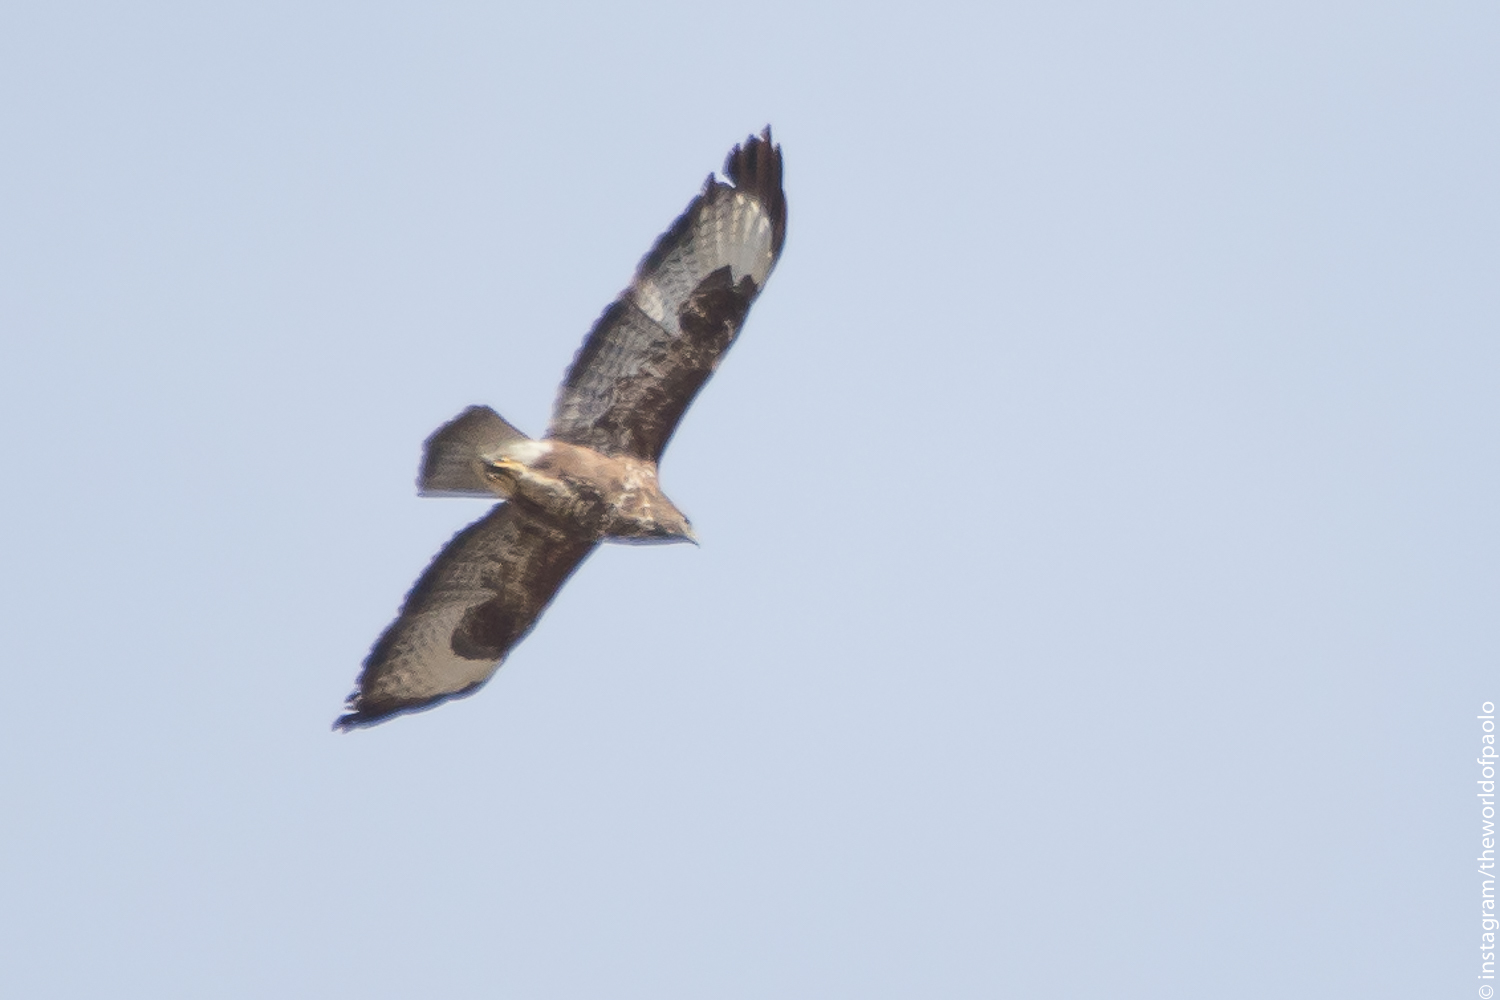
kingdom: Animalia
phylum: Chordata
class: Aves
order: Accipitriformes
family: Accipitridae
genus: Buteo
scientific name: Buteo buteo
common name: Common buzzard
